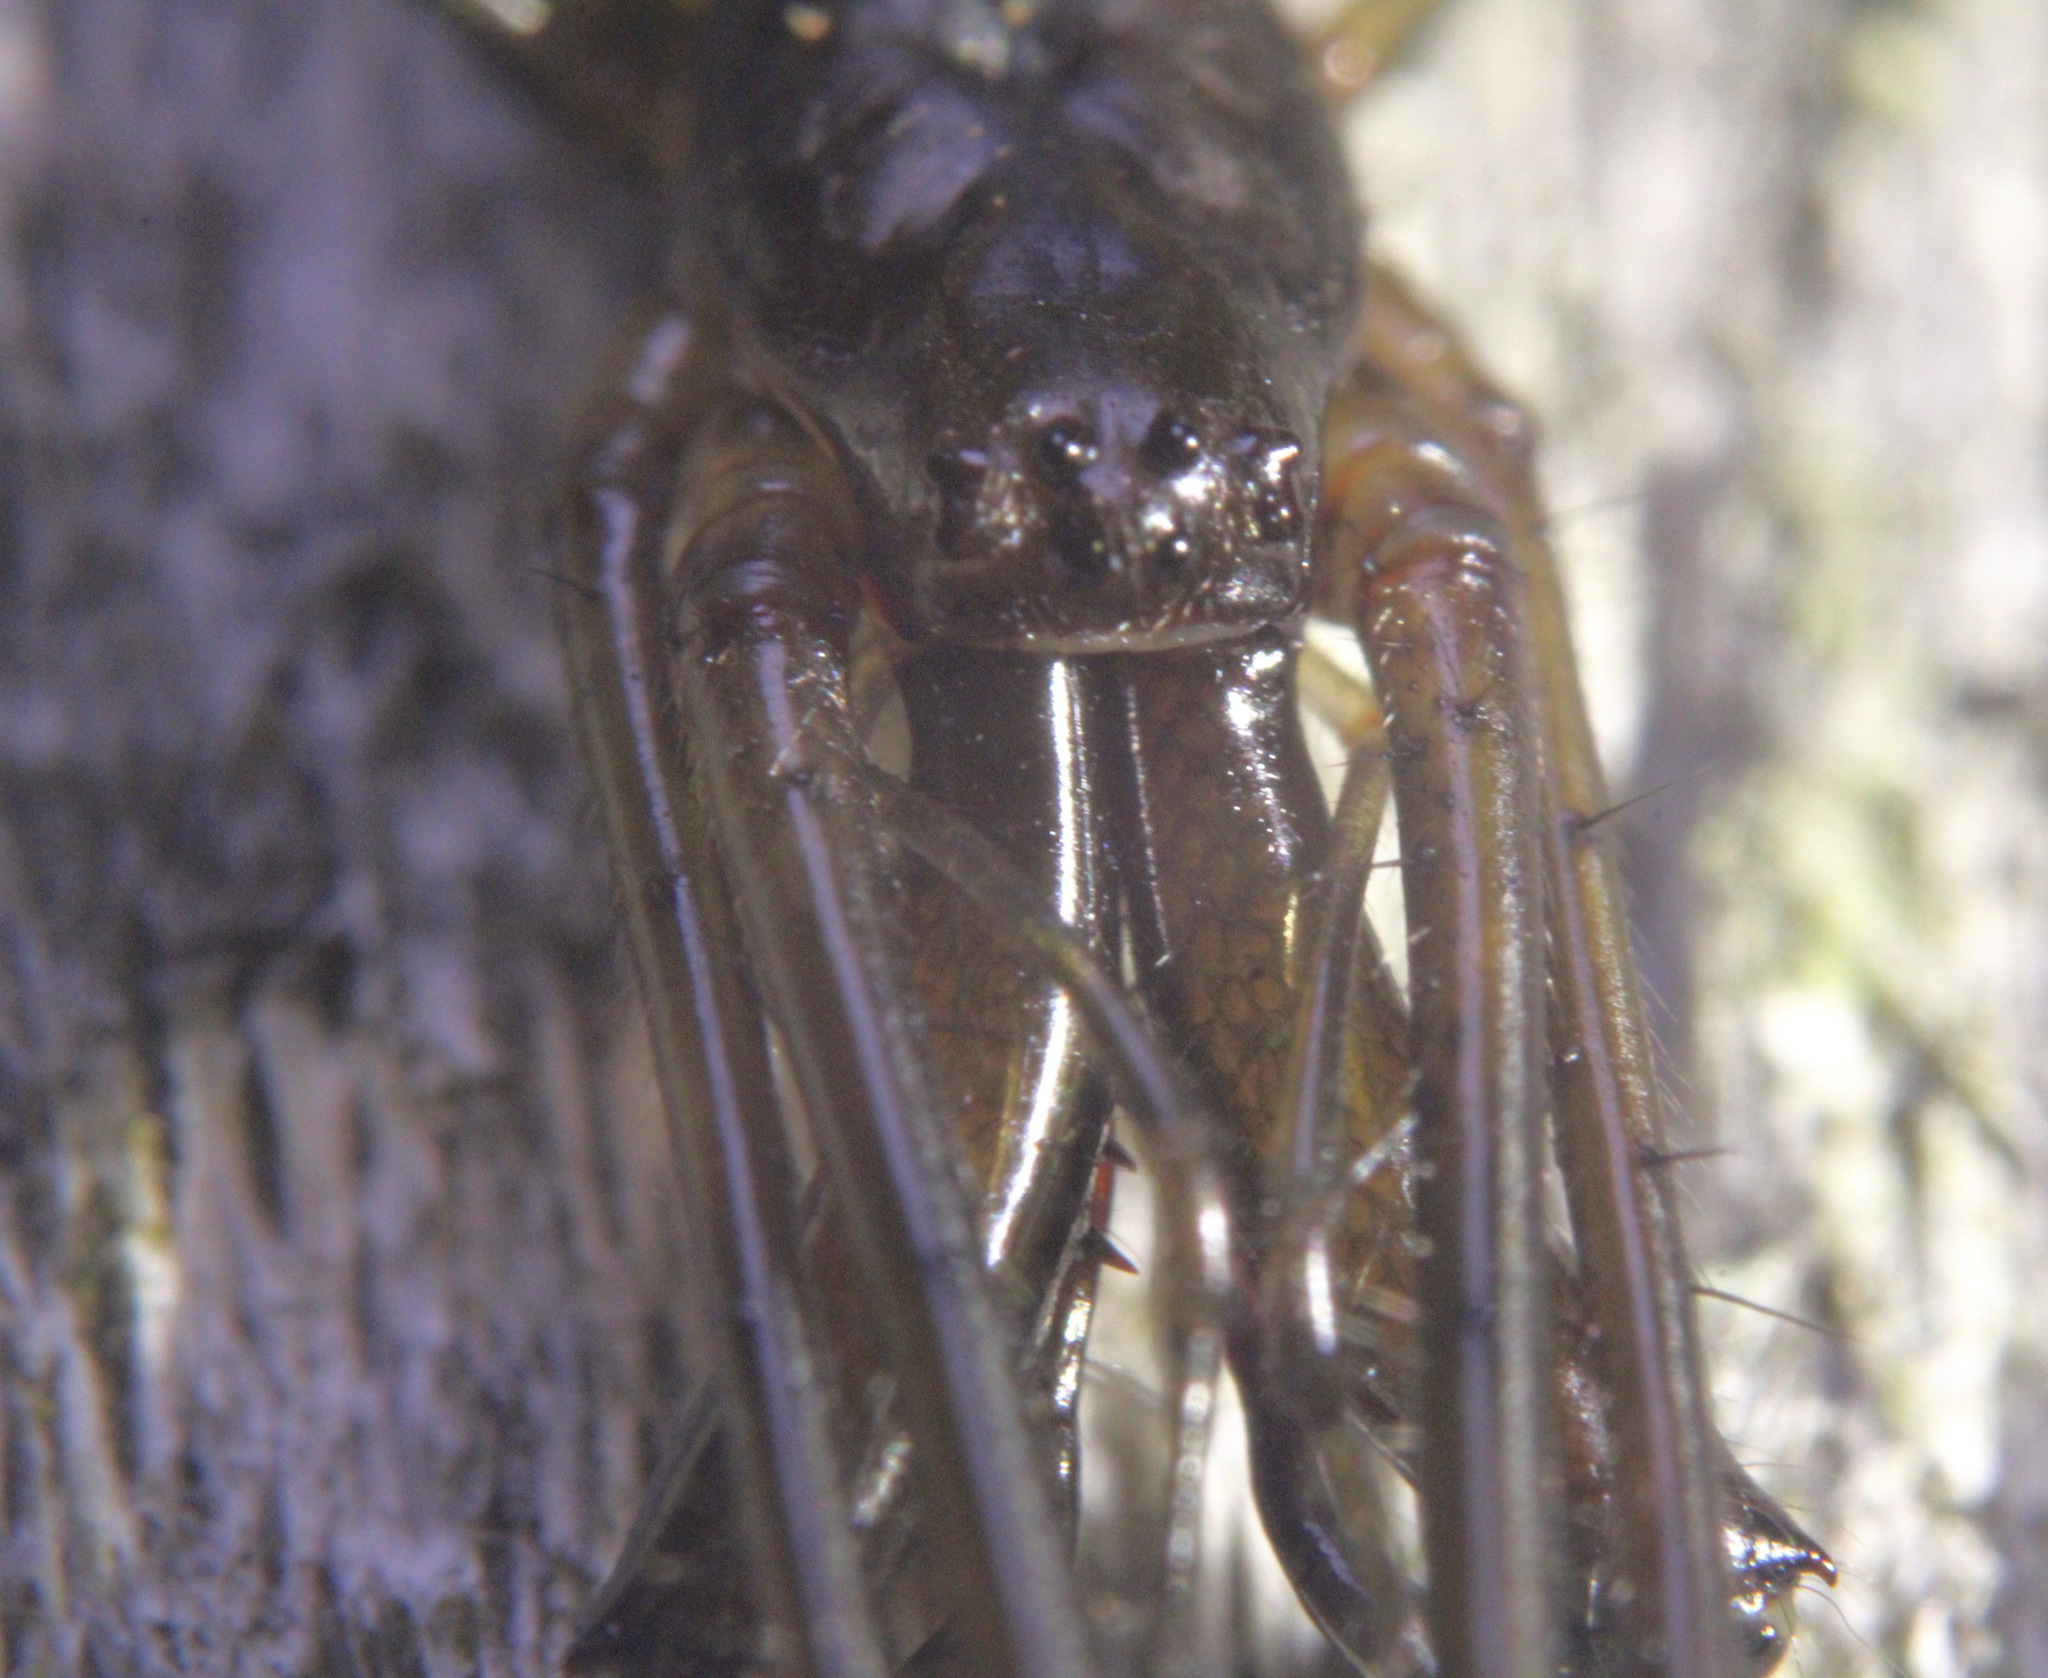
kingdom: Animalia
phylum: Arthropoda
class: Arachnida
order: Araneae
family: Tetragnathidae
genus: Tetragnatha
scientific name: Tetragnatha elongata
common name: Longjawed orb weavers
